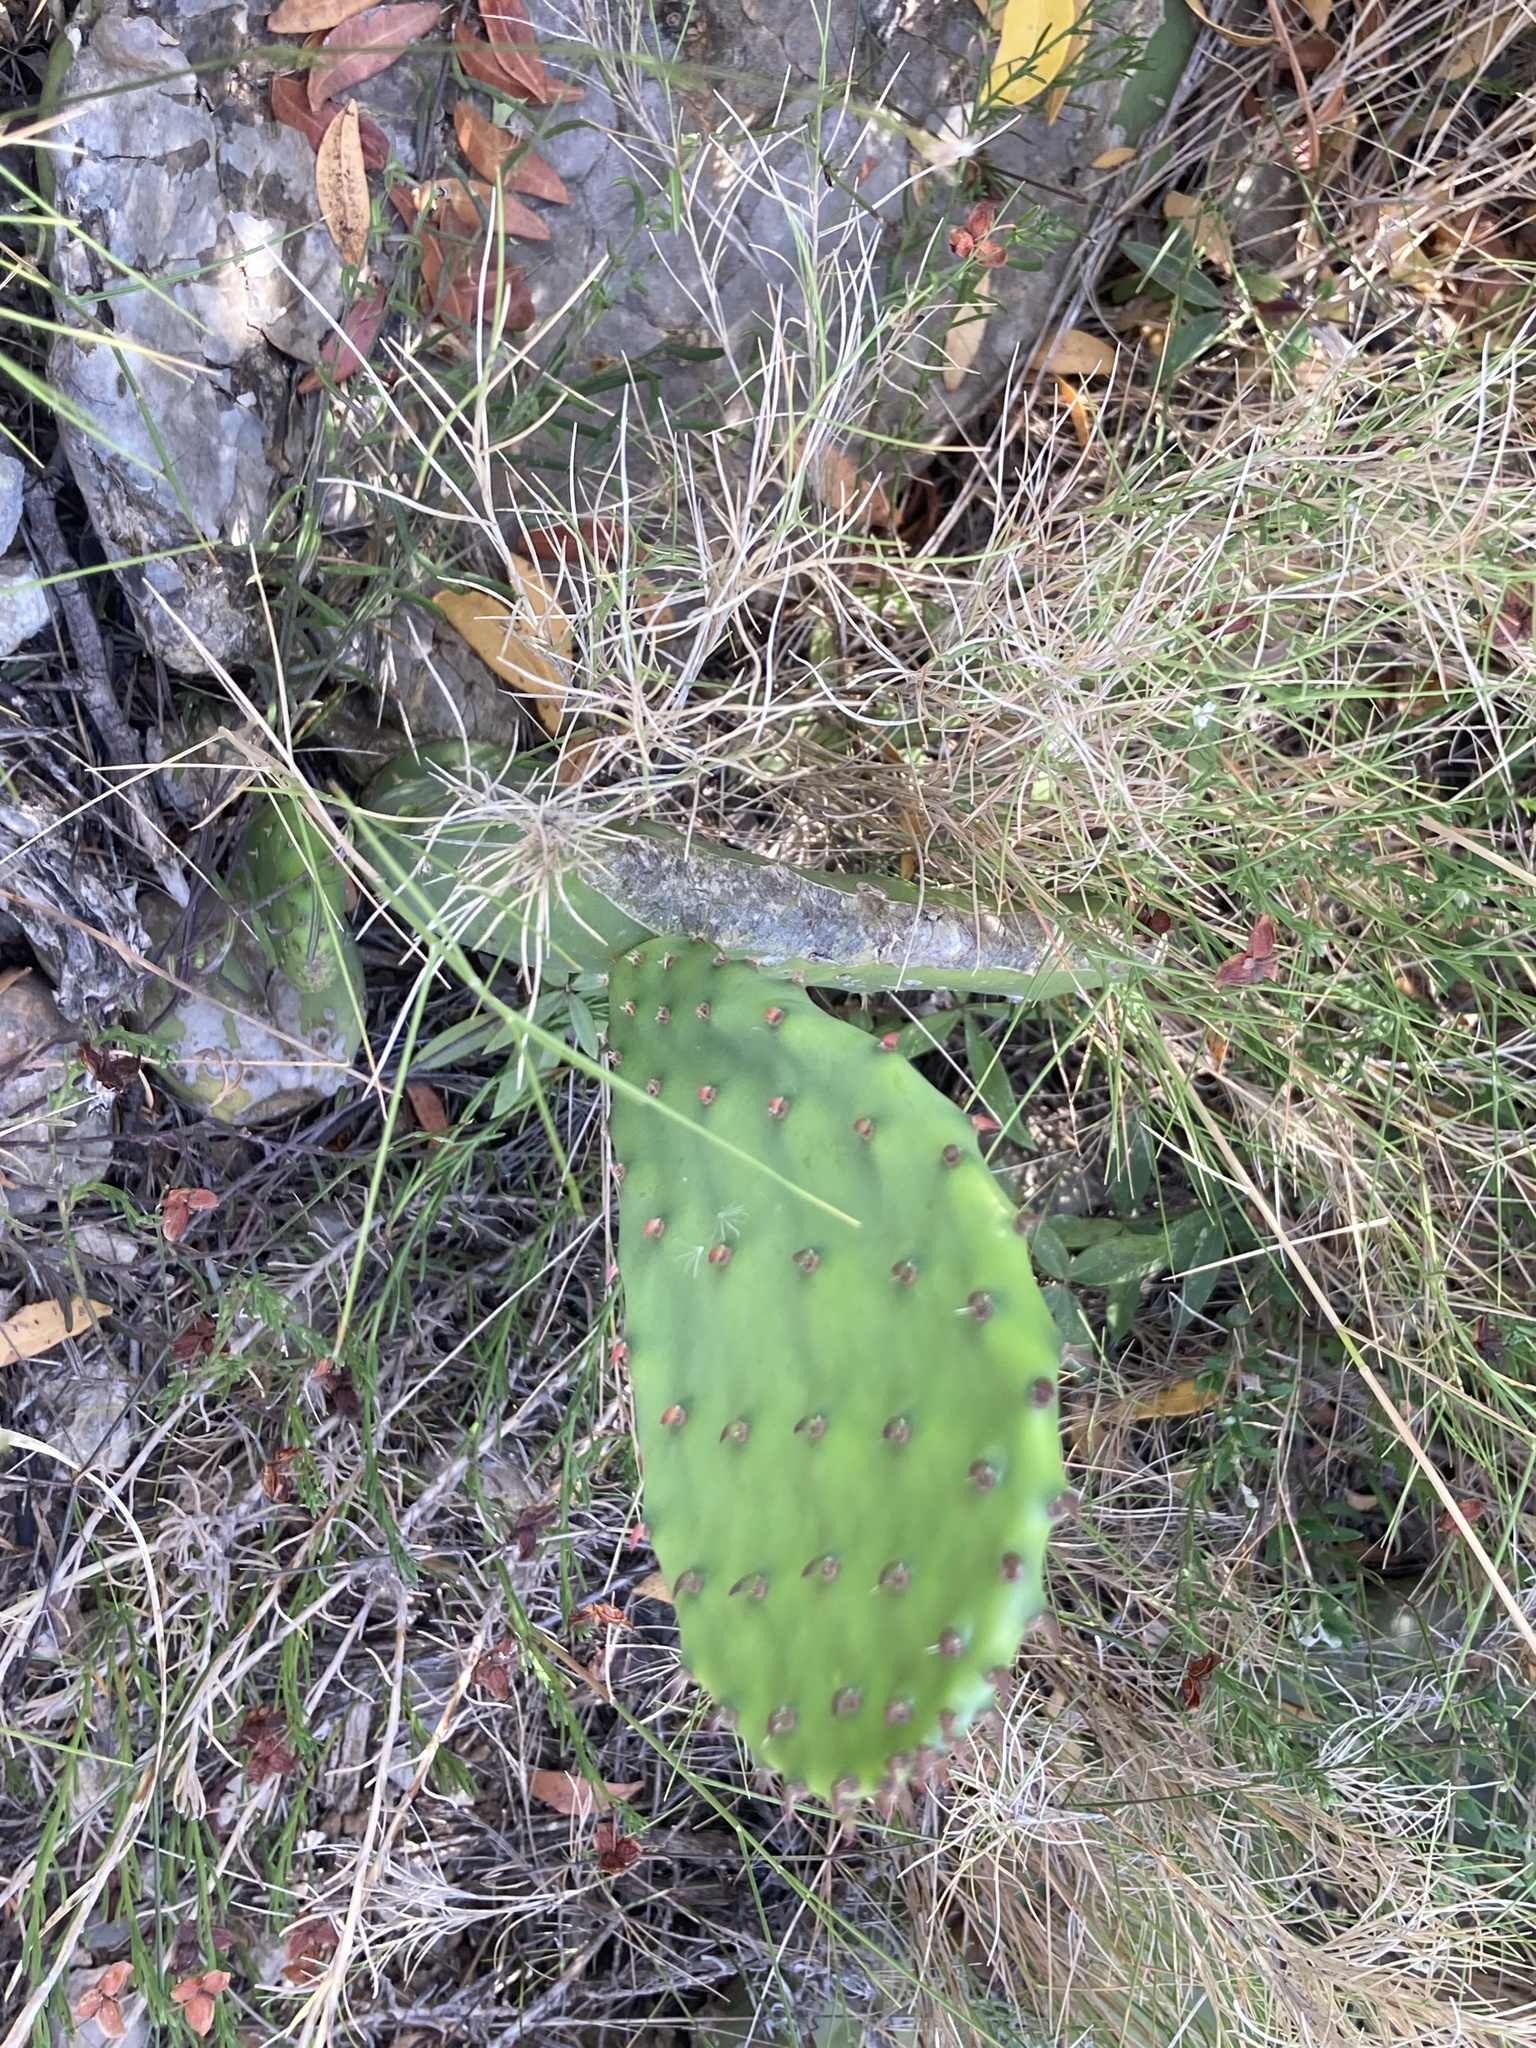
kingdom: Plantae
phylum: Tracheophyta
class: Magnoliopsida
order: Caryophyllales
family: Cactaceae
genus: Opuntia
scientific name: Opuntia ficus-indica
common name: Barbary fig
